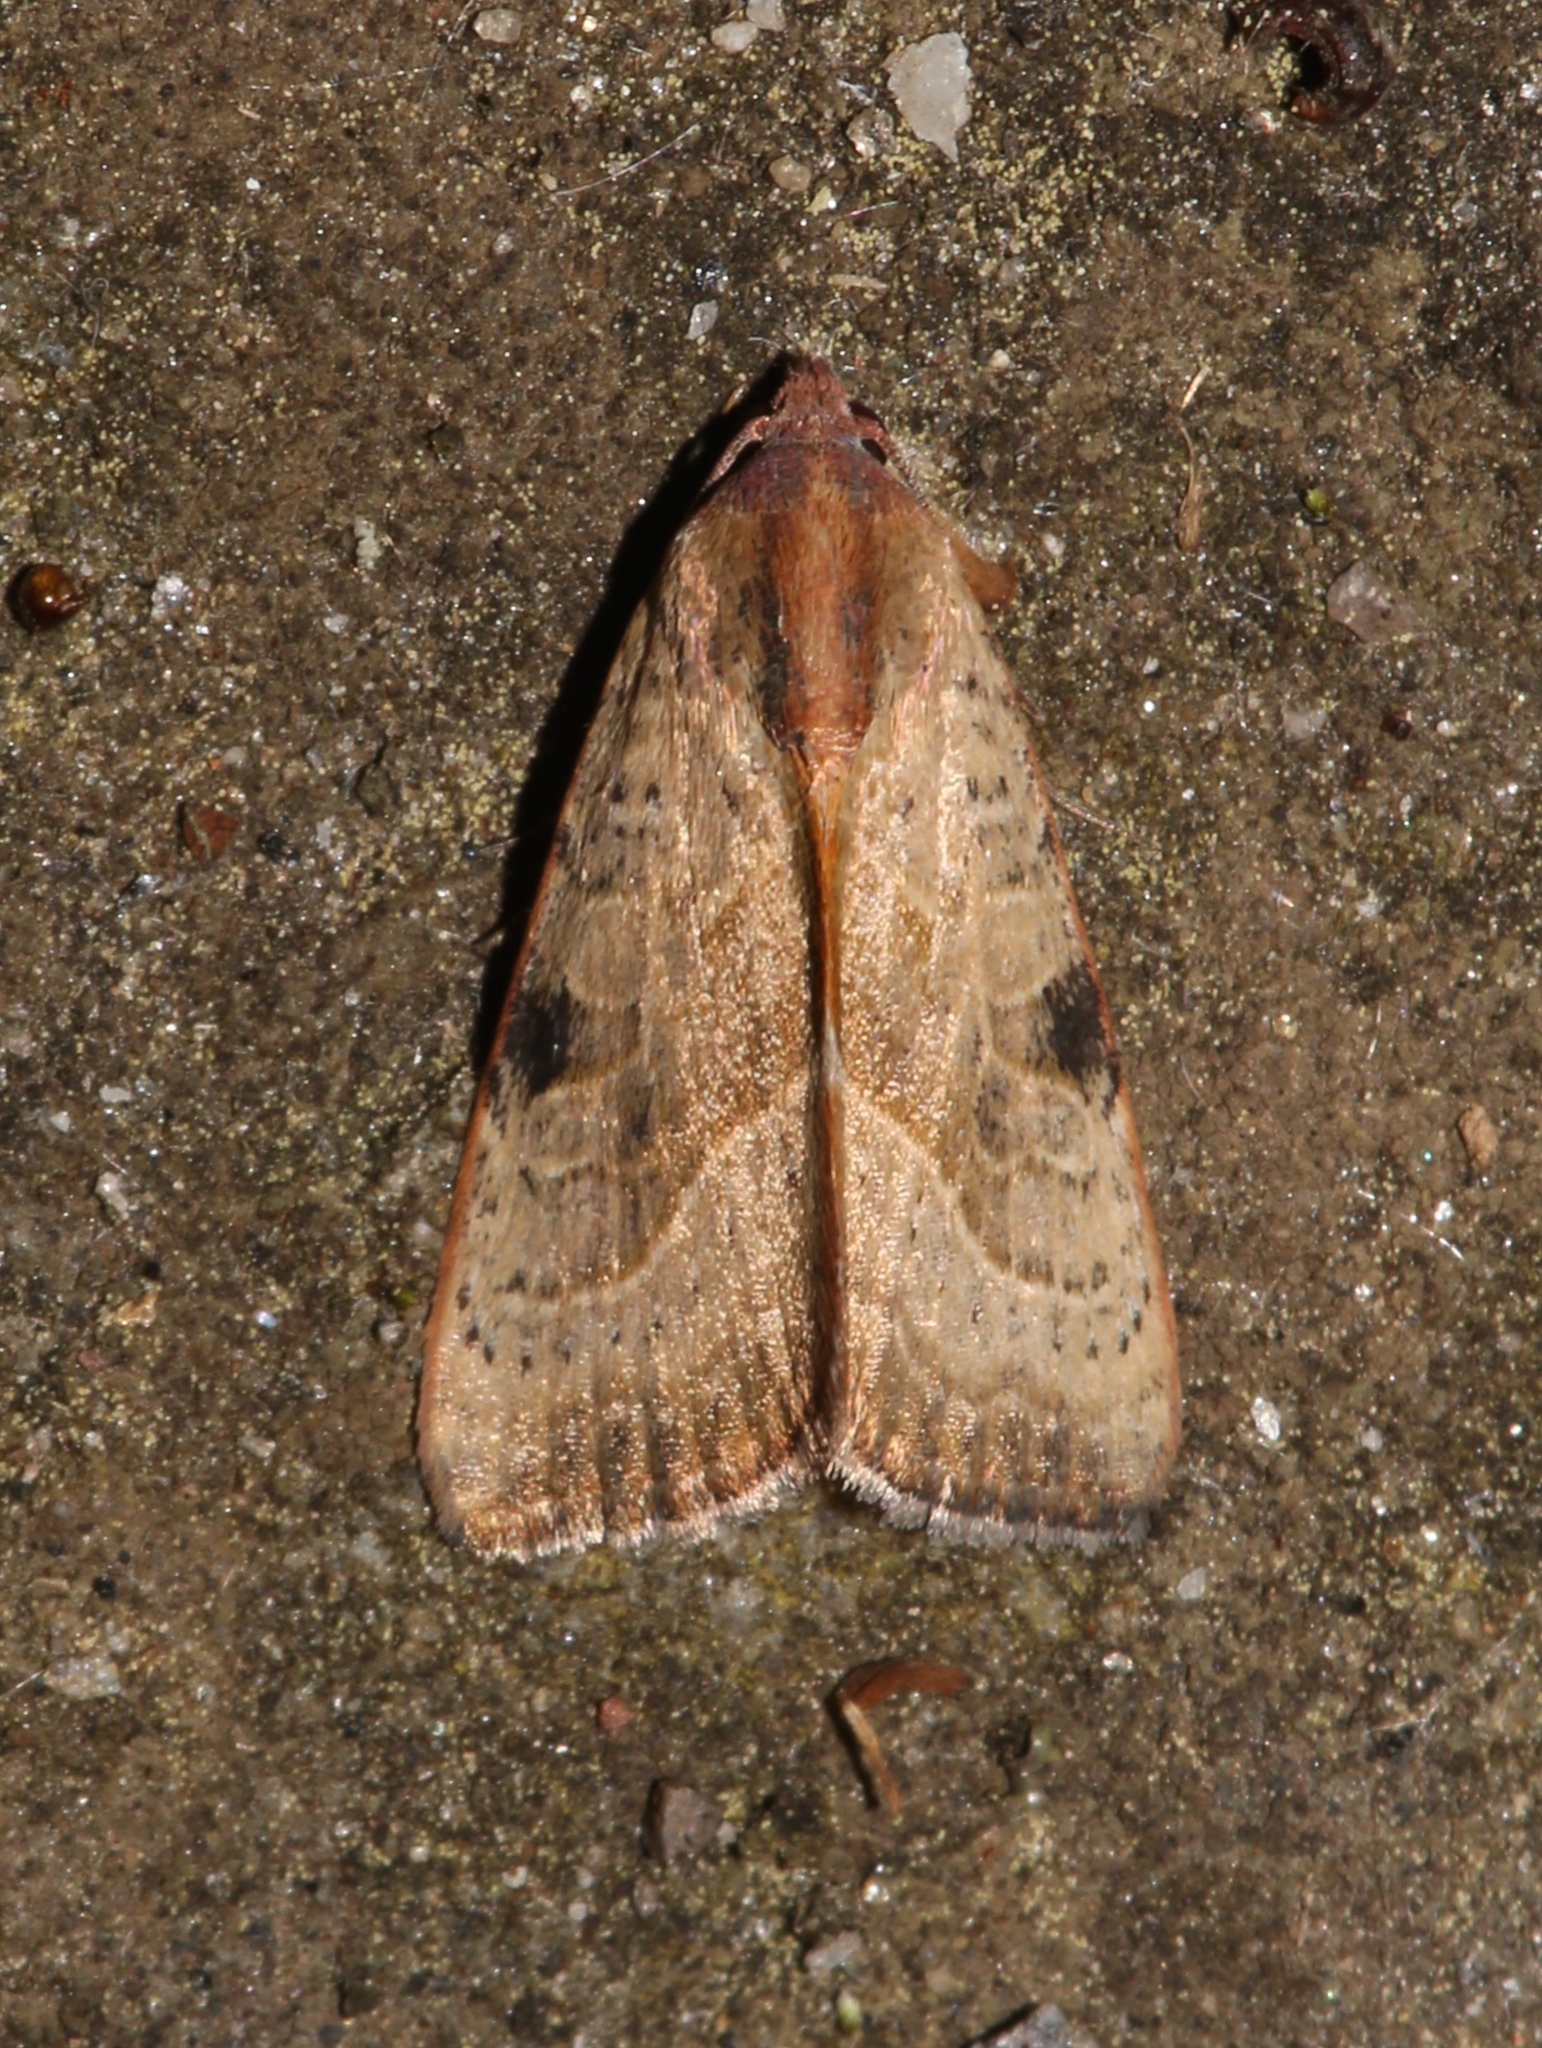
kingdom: Animalia
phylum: Arthropoda
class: Insecta
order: Lepidoptera
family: Noctuidae
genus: Galgula
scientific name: Galgula partita
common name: Wedgeling
